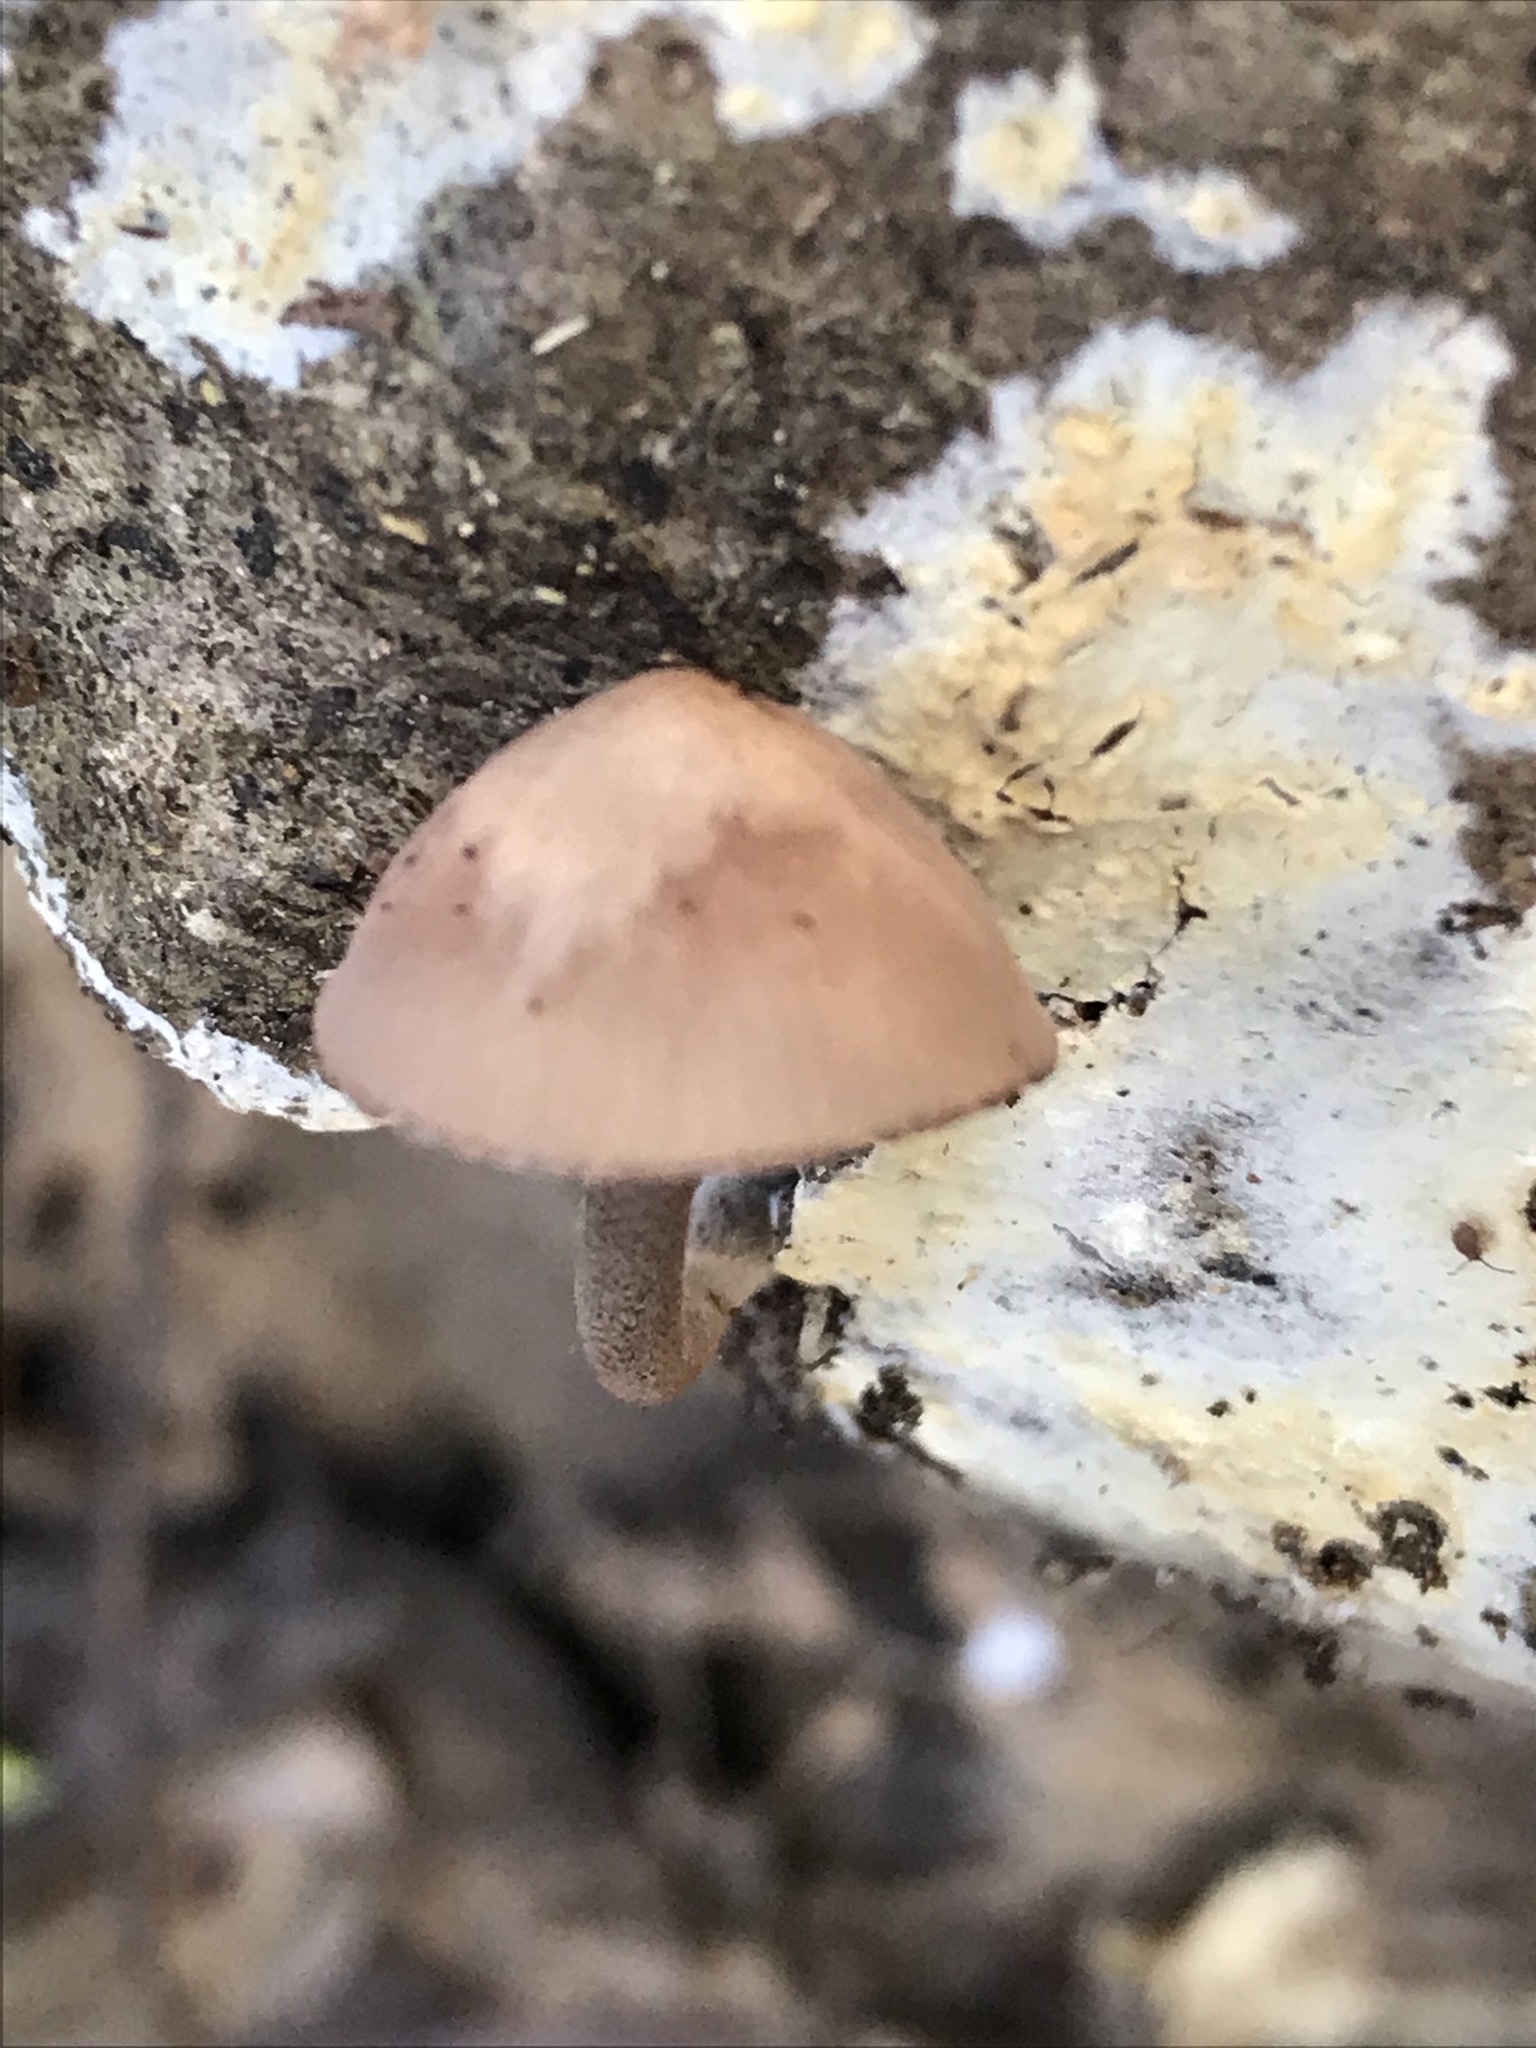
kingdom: Fungi
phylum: Basidiomycota
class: Agaricomycetes
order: Agaricales
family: Mycenaceae
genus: Mycena
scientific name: Mycena haematopus
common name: Burgundydrop bonnet
